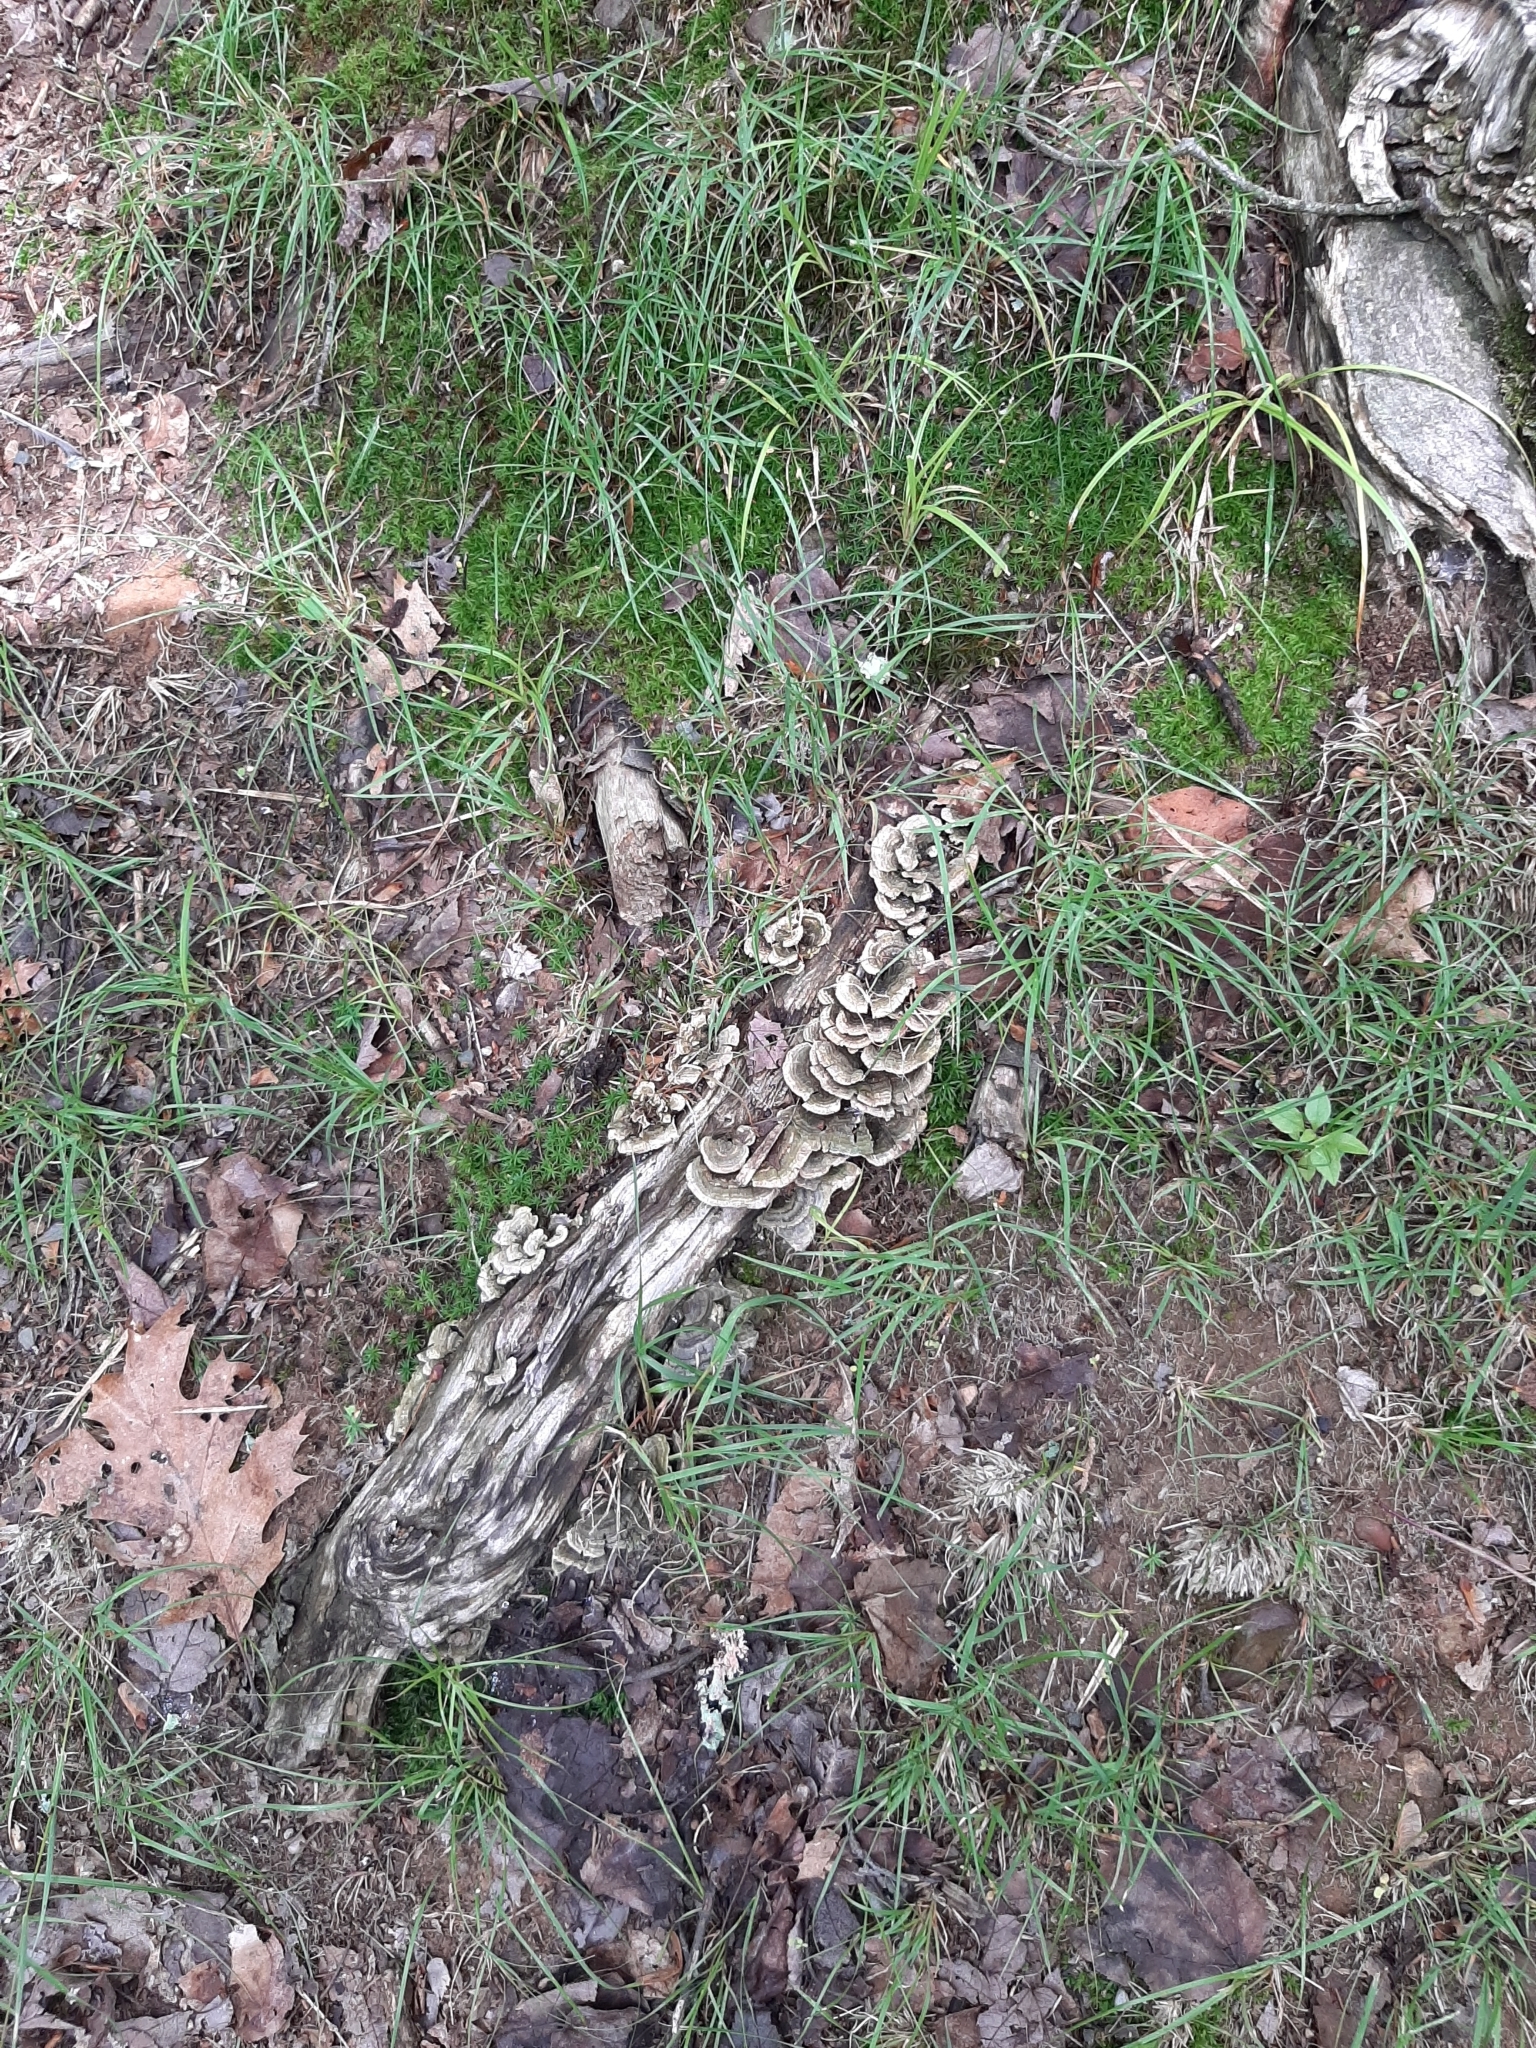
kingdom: Fungi
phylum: Basidiomycota
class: Agaricomycetes
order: Polyporales
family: Polyporaceae
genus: Trametes
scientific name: Trametes versicolor
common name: Turkeytail
